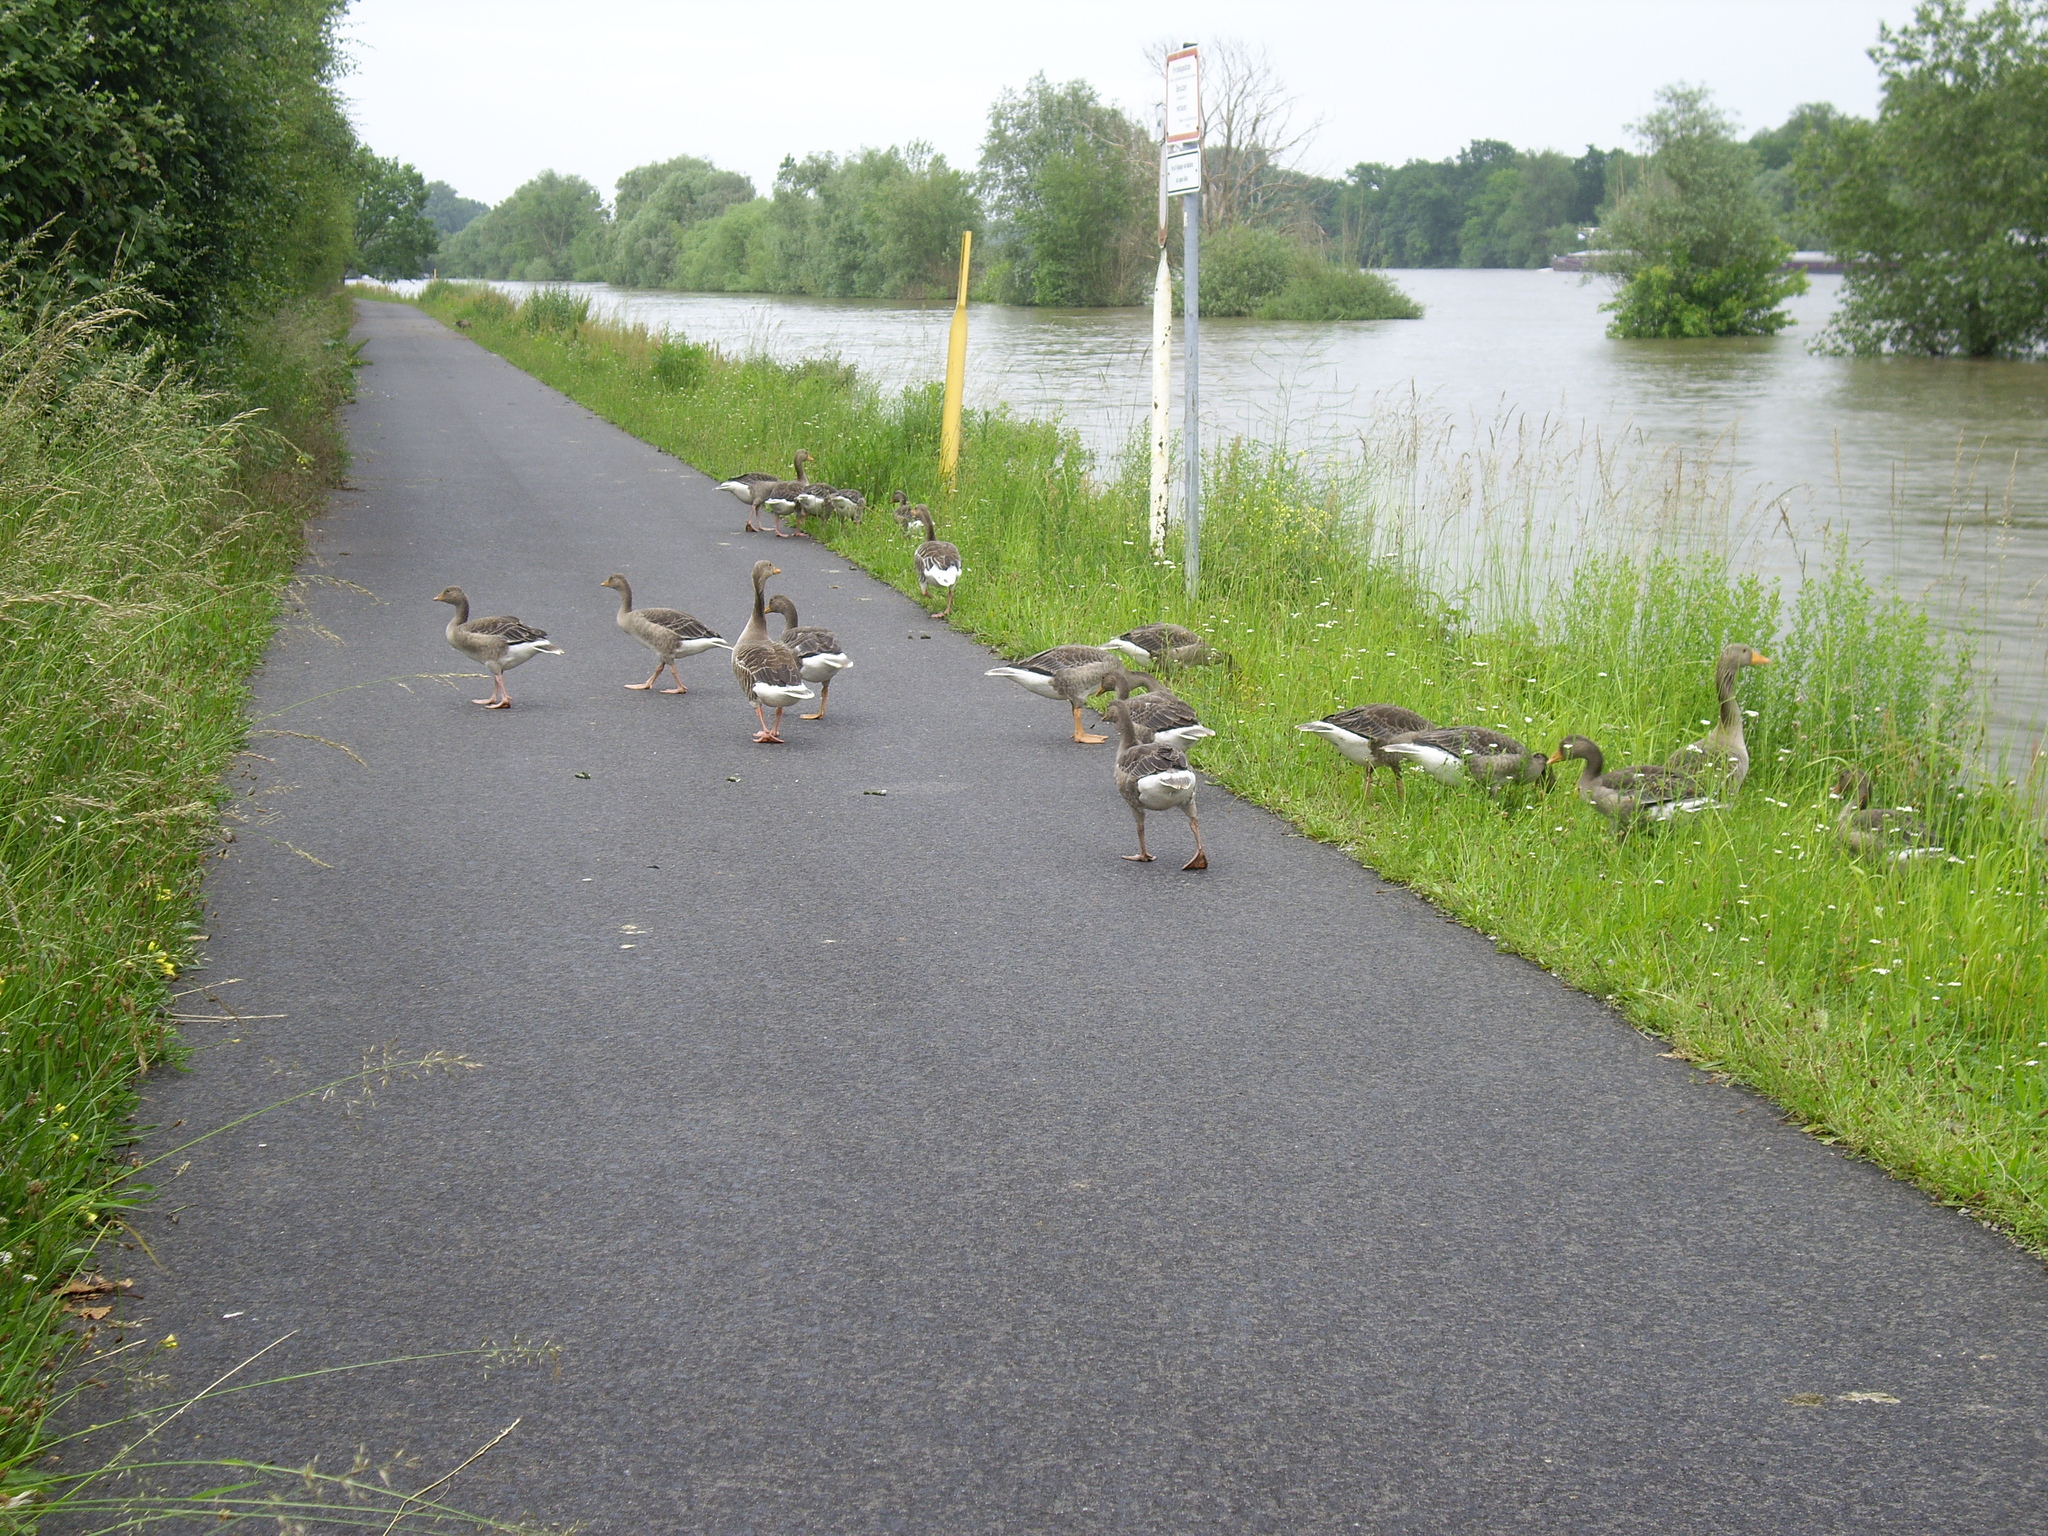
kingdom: Animalia
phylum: Chordata
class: Aves
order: Anseriformes
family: Anatidae
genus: Anser
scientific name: Anser anser
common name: Greylag goose
